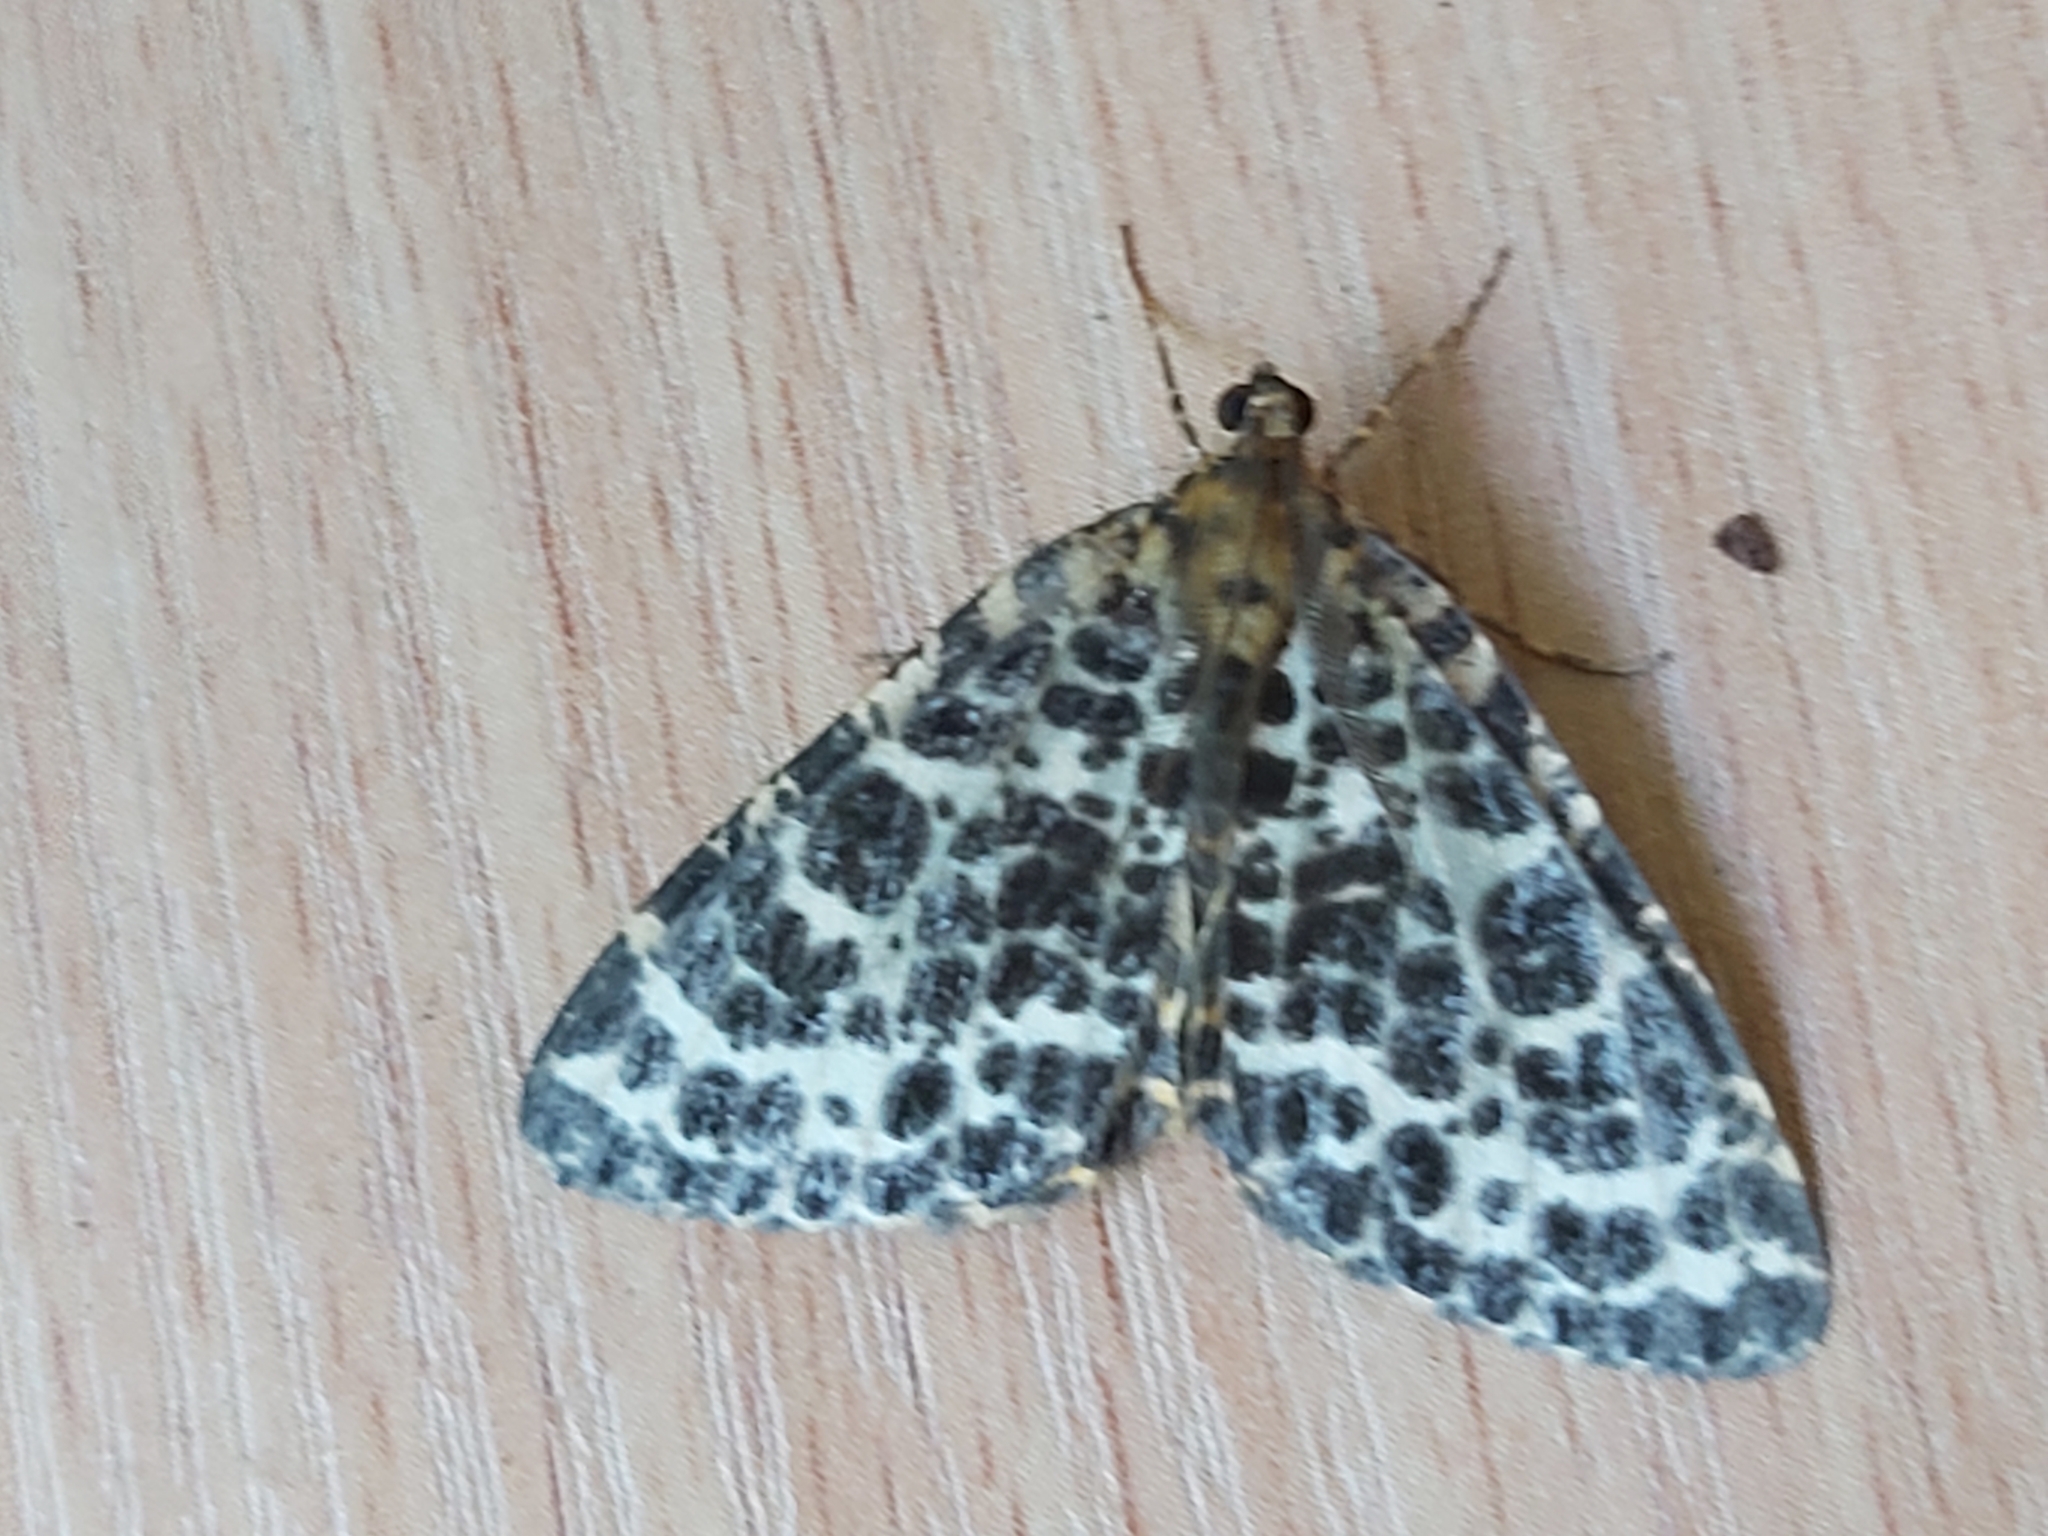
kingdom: Animalia
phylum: Arthropoda
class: Insecta
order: Lepidoptera
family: Geometridae
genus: Arichanna
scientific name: Arichanna melanaria
